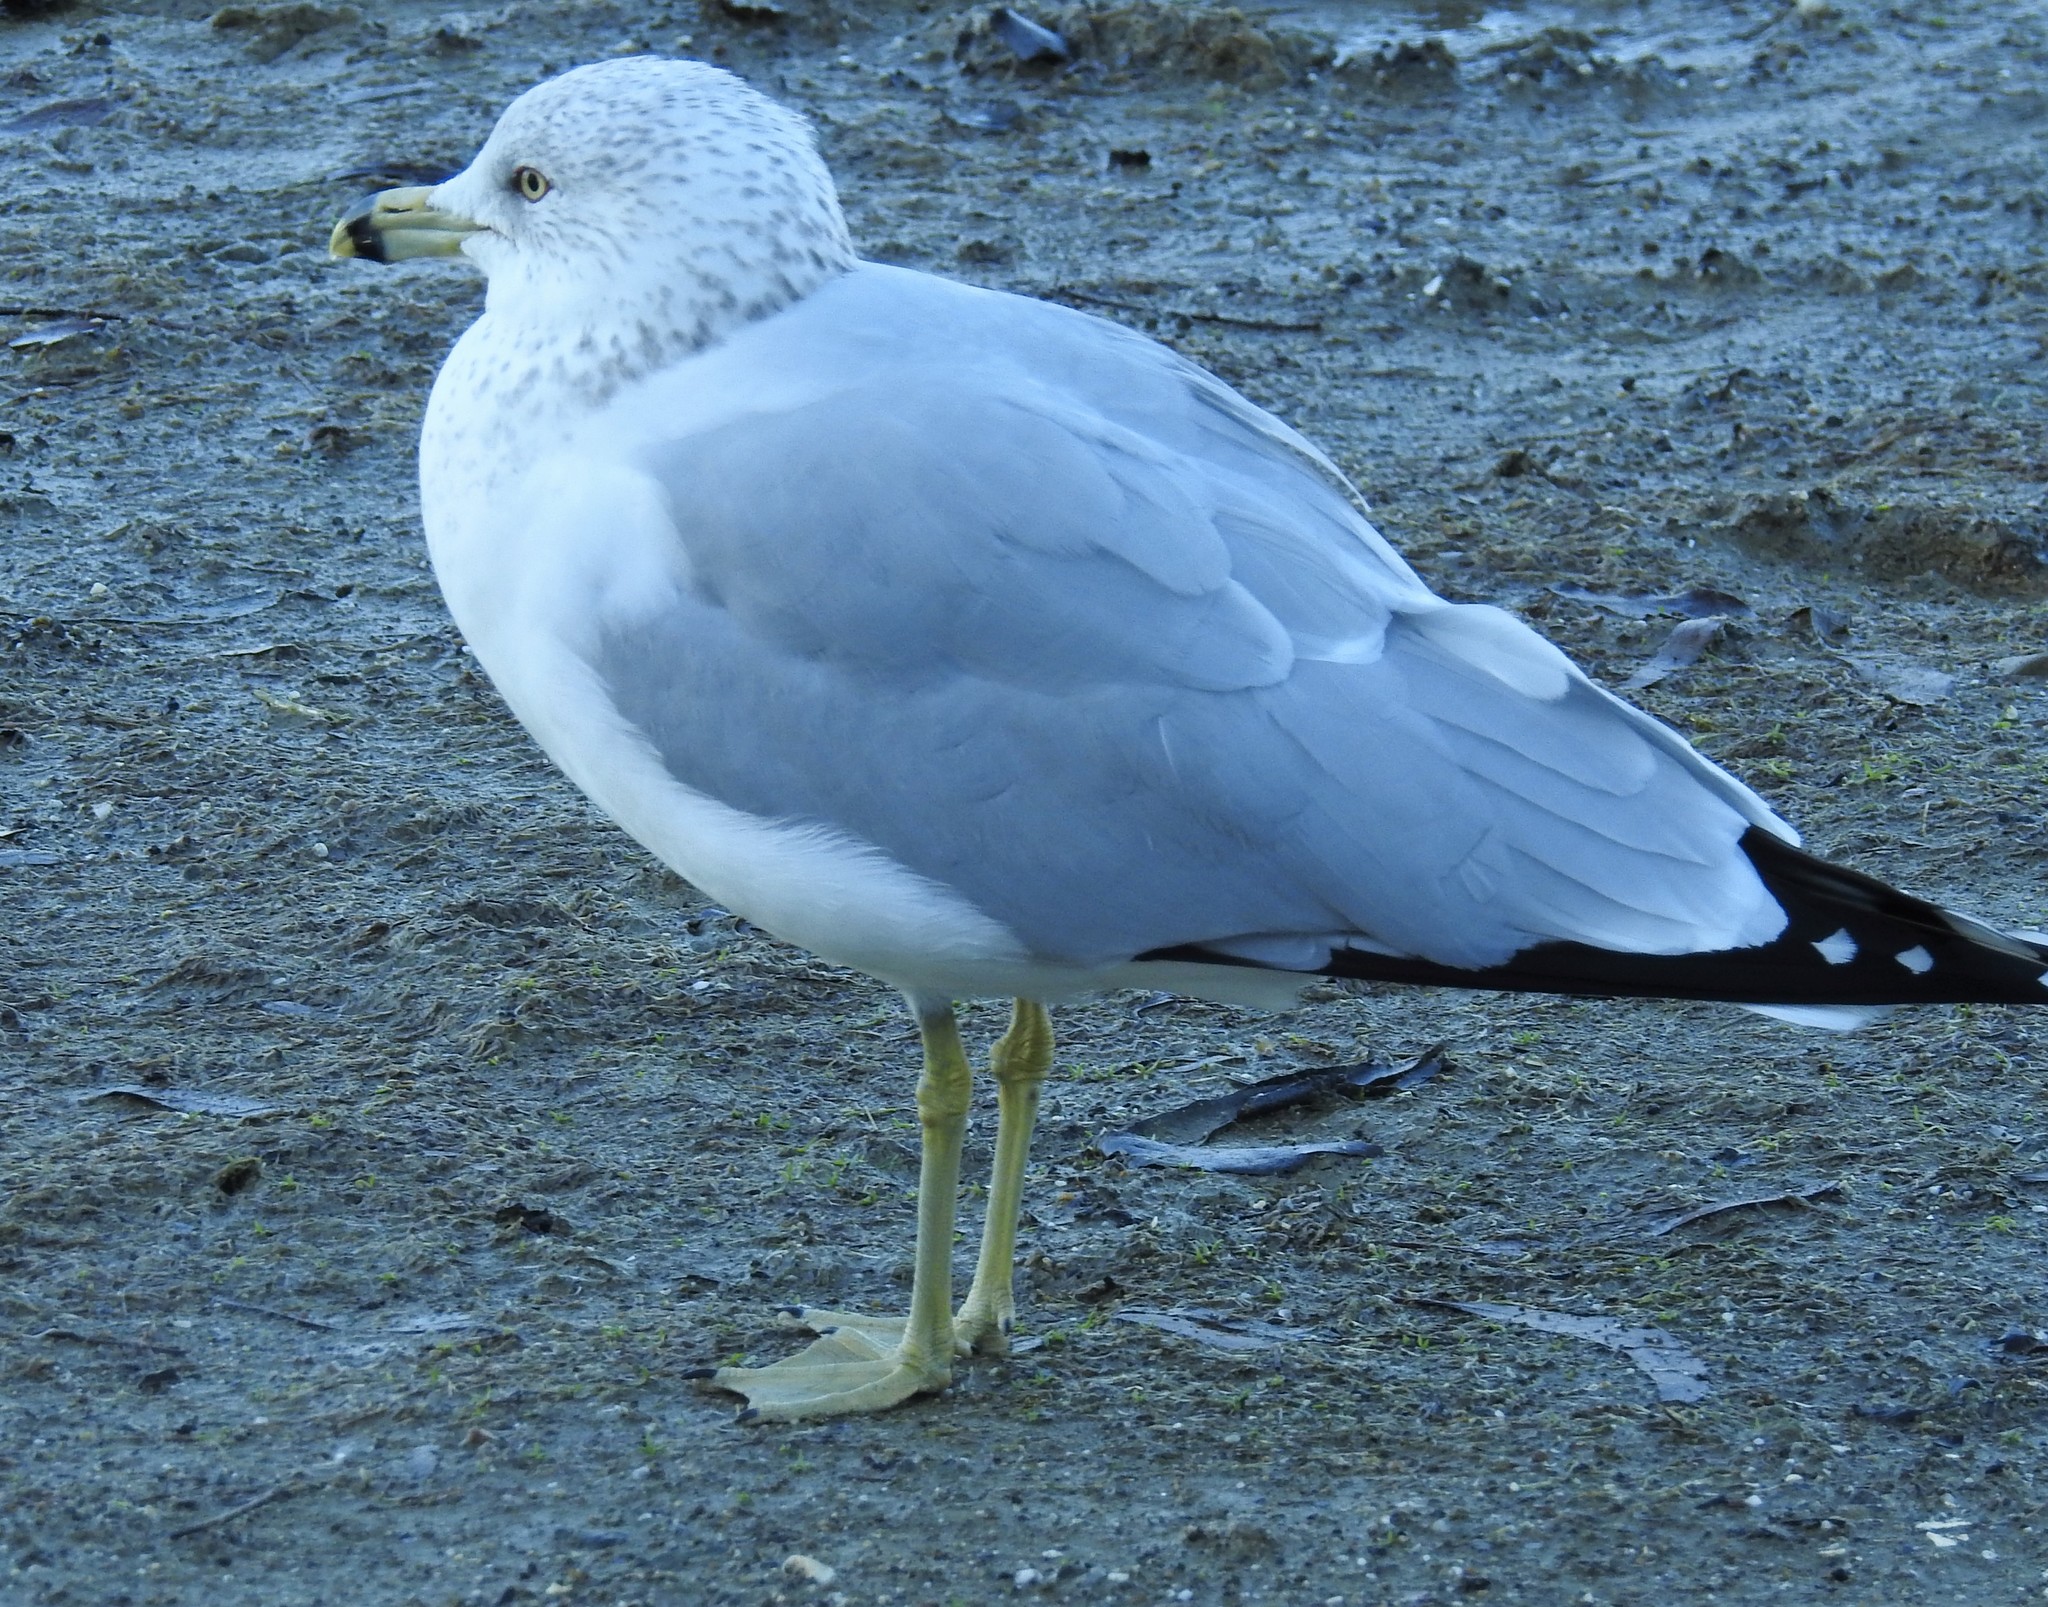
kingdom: Animalia
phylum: Chordata
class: Aves
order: Charadriiformes
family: Laridae
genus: Larus
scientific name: Larus delawarensis
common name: Ring-billed gull
